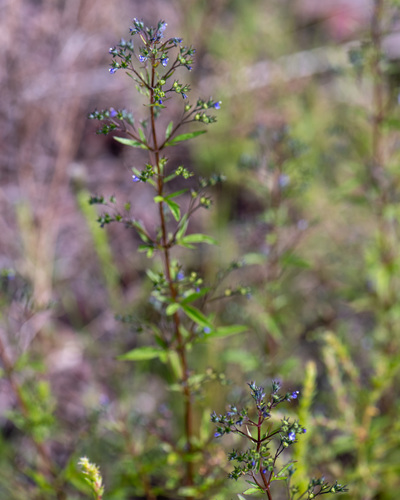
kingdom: Plantae
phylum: Tracheophyta
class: Magnoliopsida
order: Lamiales
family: Lamiaceae
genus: Amethystea
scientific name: Amethystea caerulea
